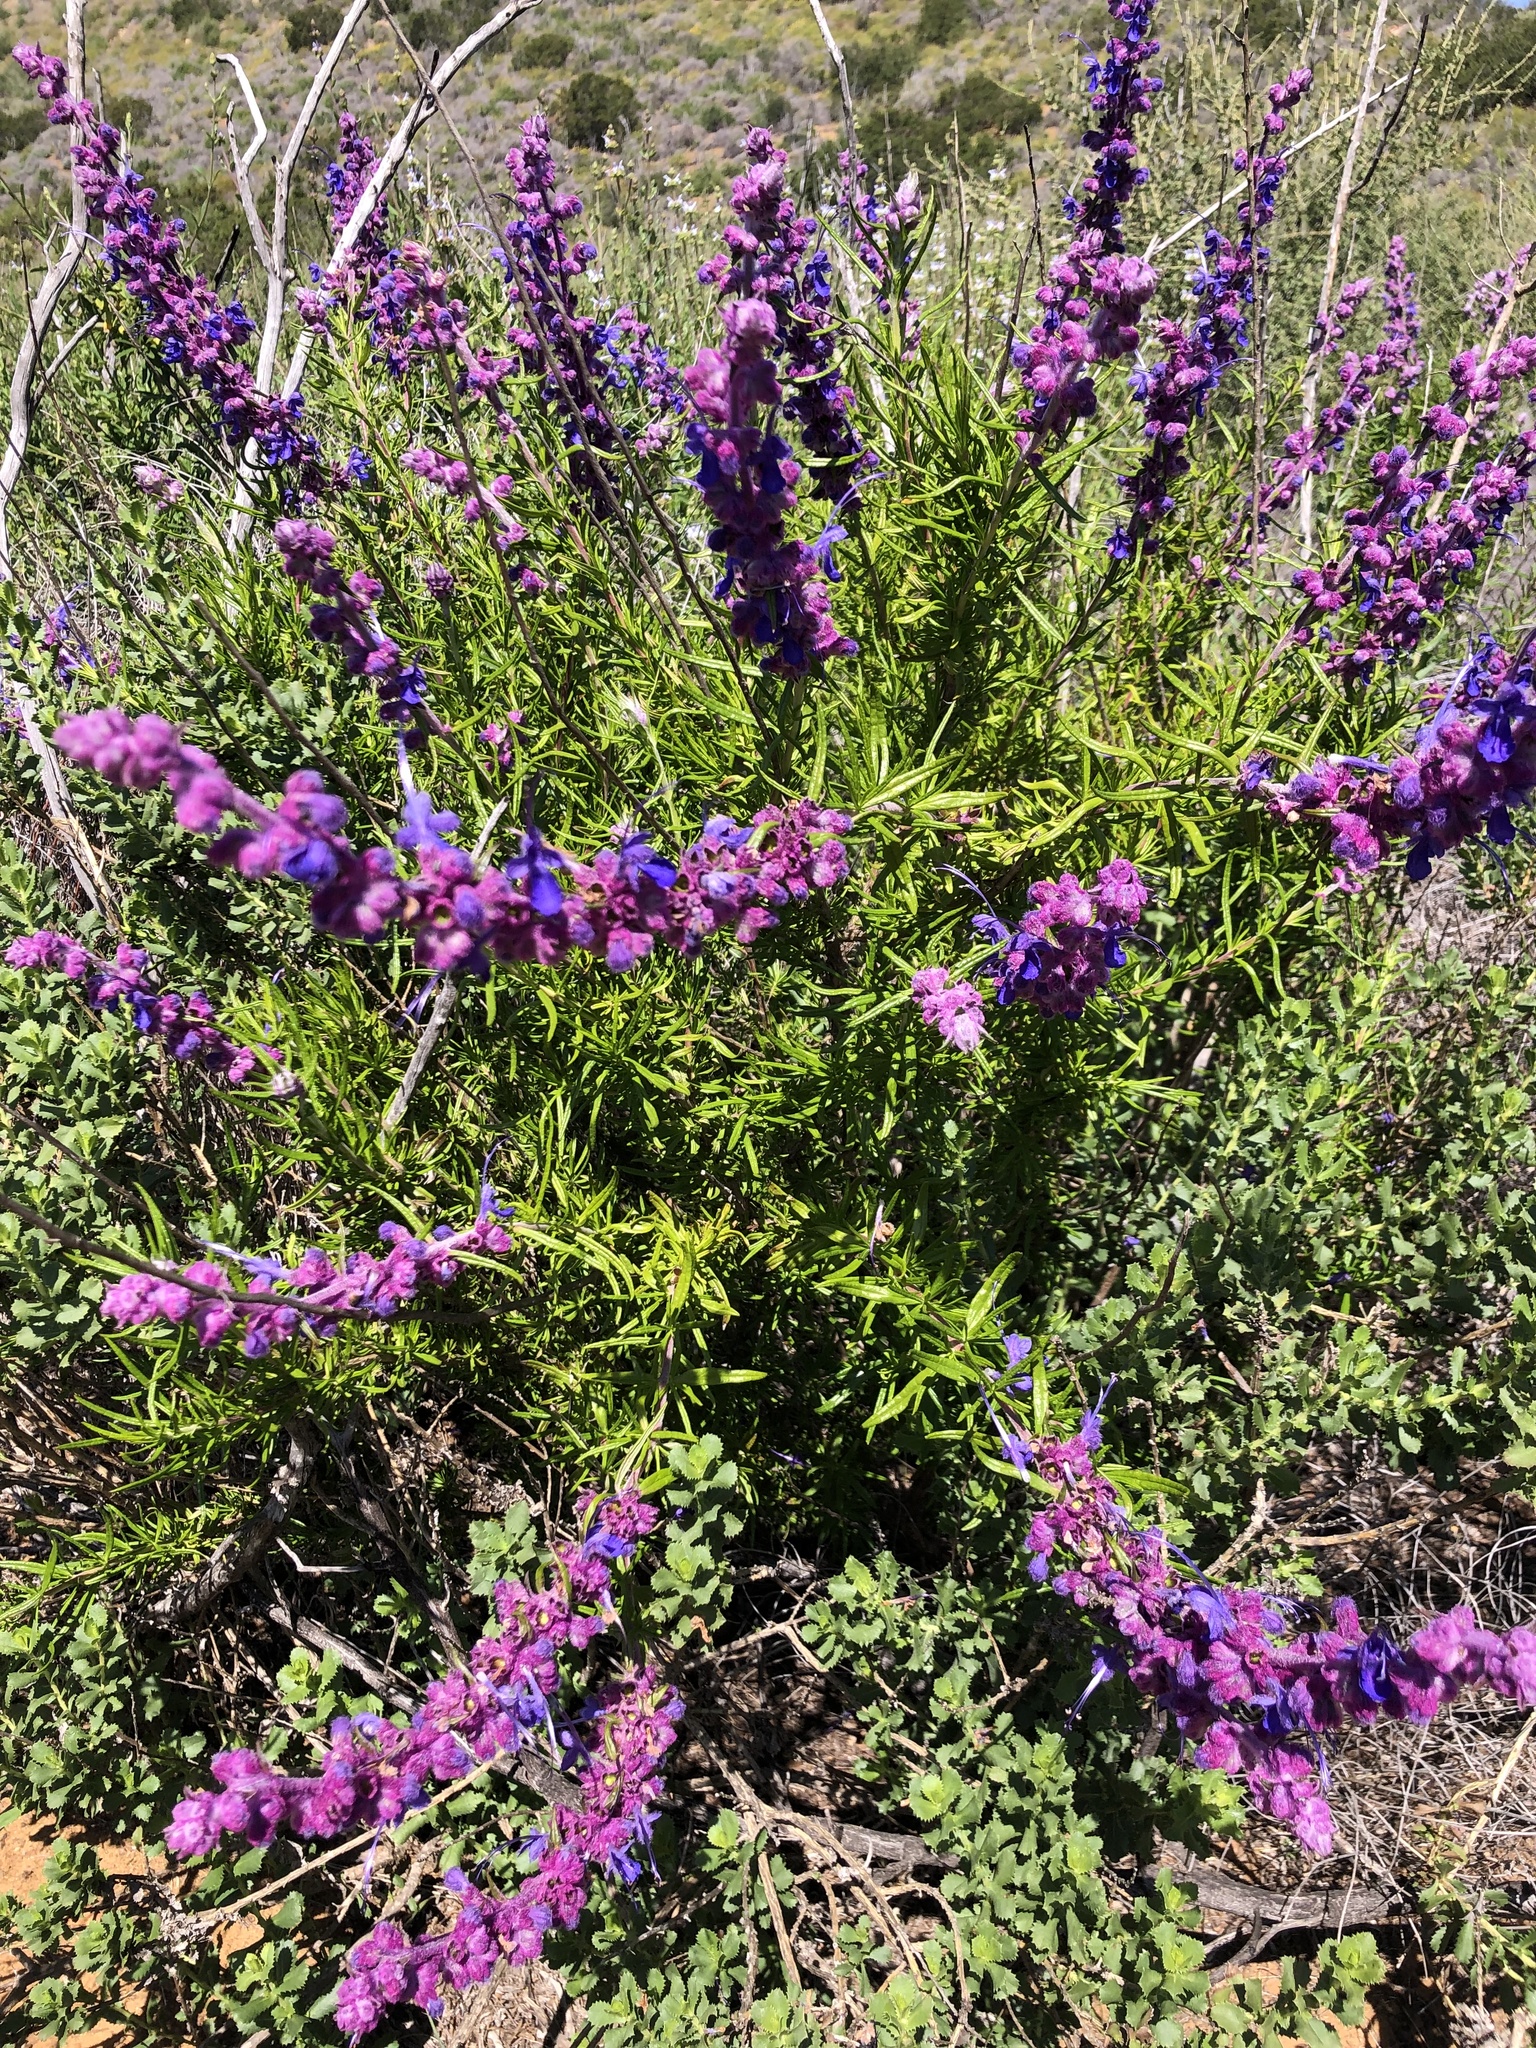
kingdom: Plantae
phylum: Tracheophyta
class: Magnoliopsida
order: Lamiales
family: Lamiaceae
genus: Trichostema
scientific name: Trichostema lanatum
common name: Woolly bluecurls
